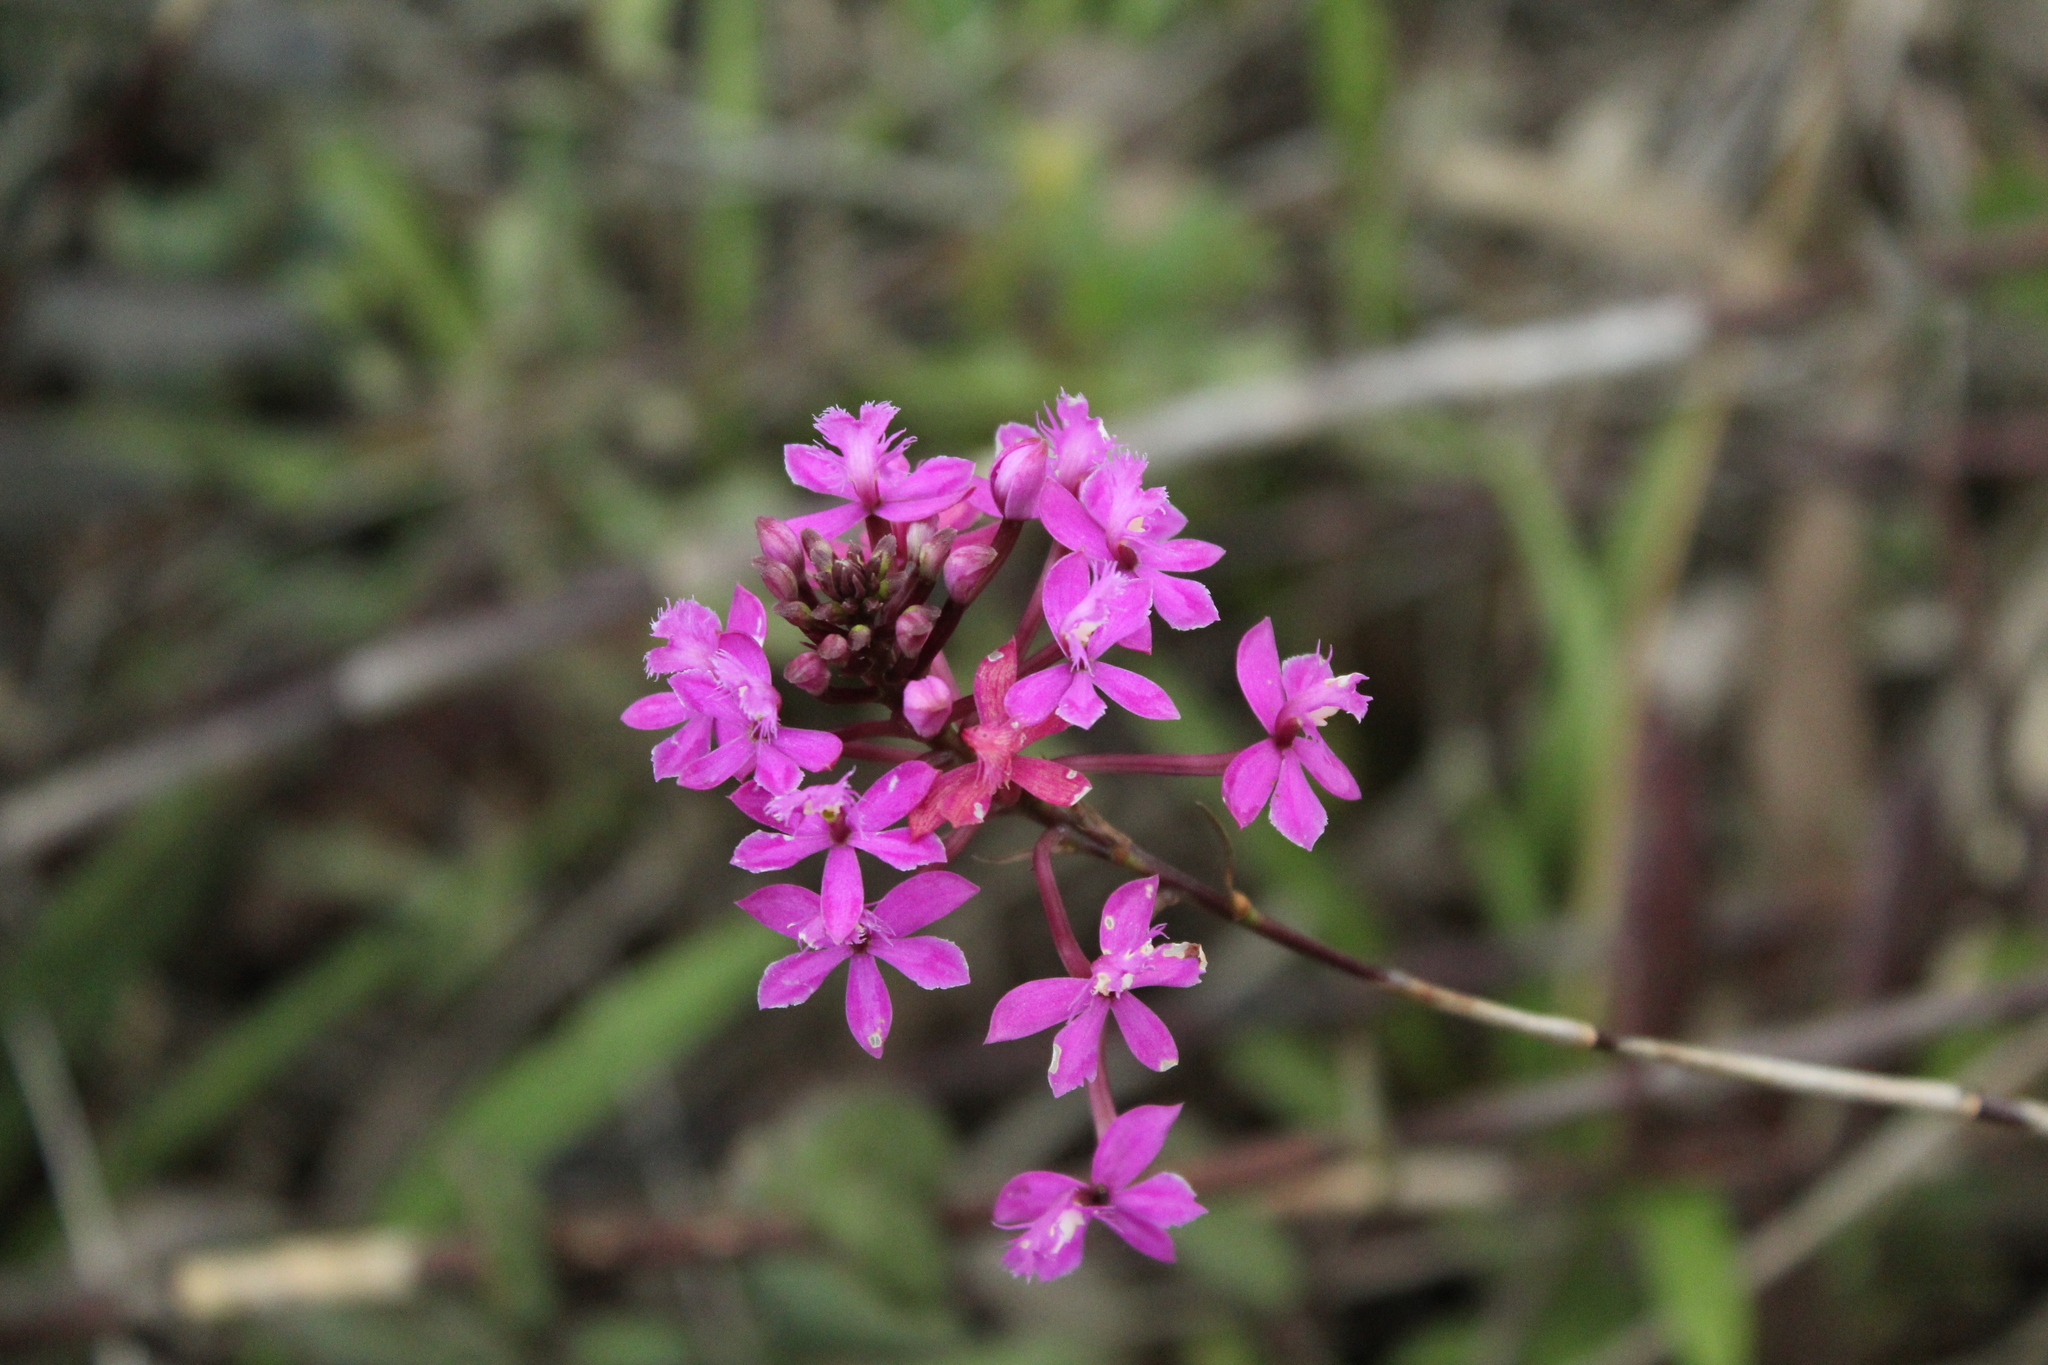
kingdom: Plantae
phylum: Tracheophyta
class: Liliopsida
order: Asparagales
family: Orchidaceae
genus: Epidendrum
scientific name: Epidendrum arachnoglossum
